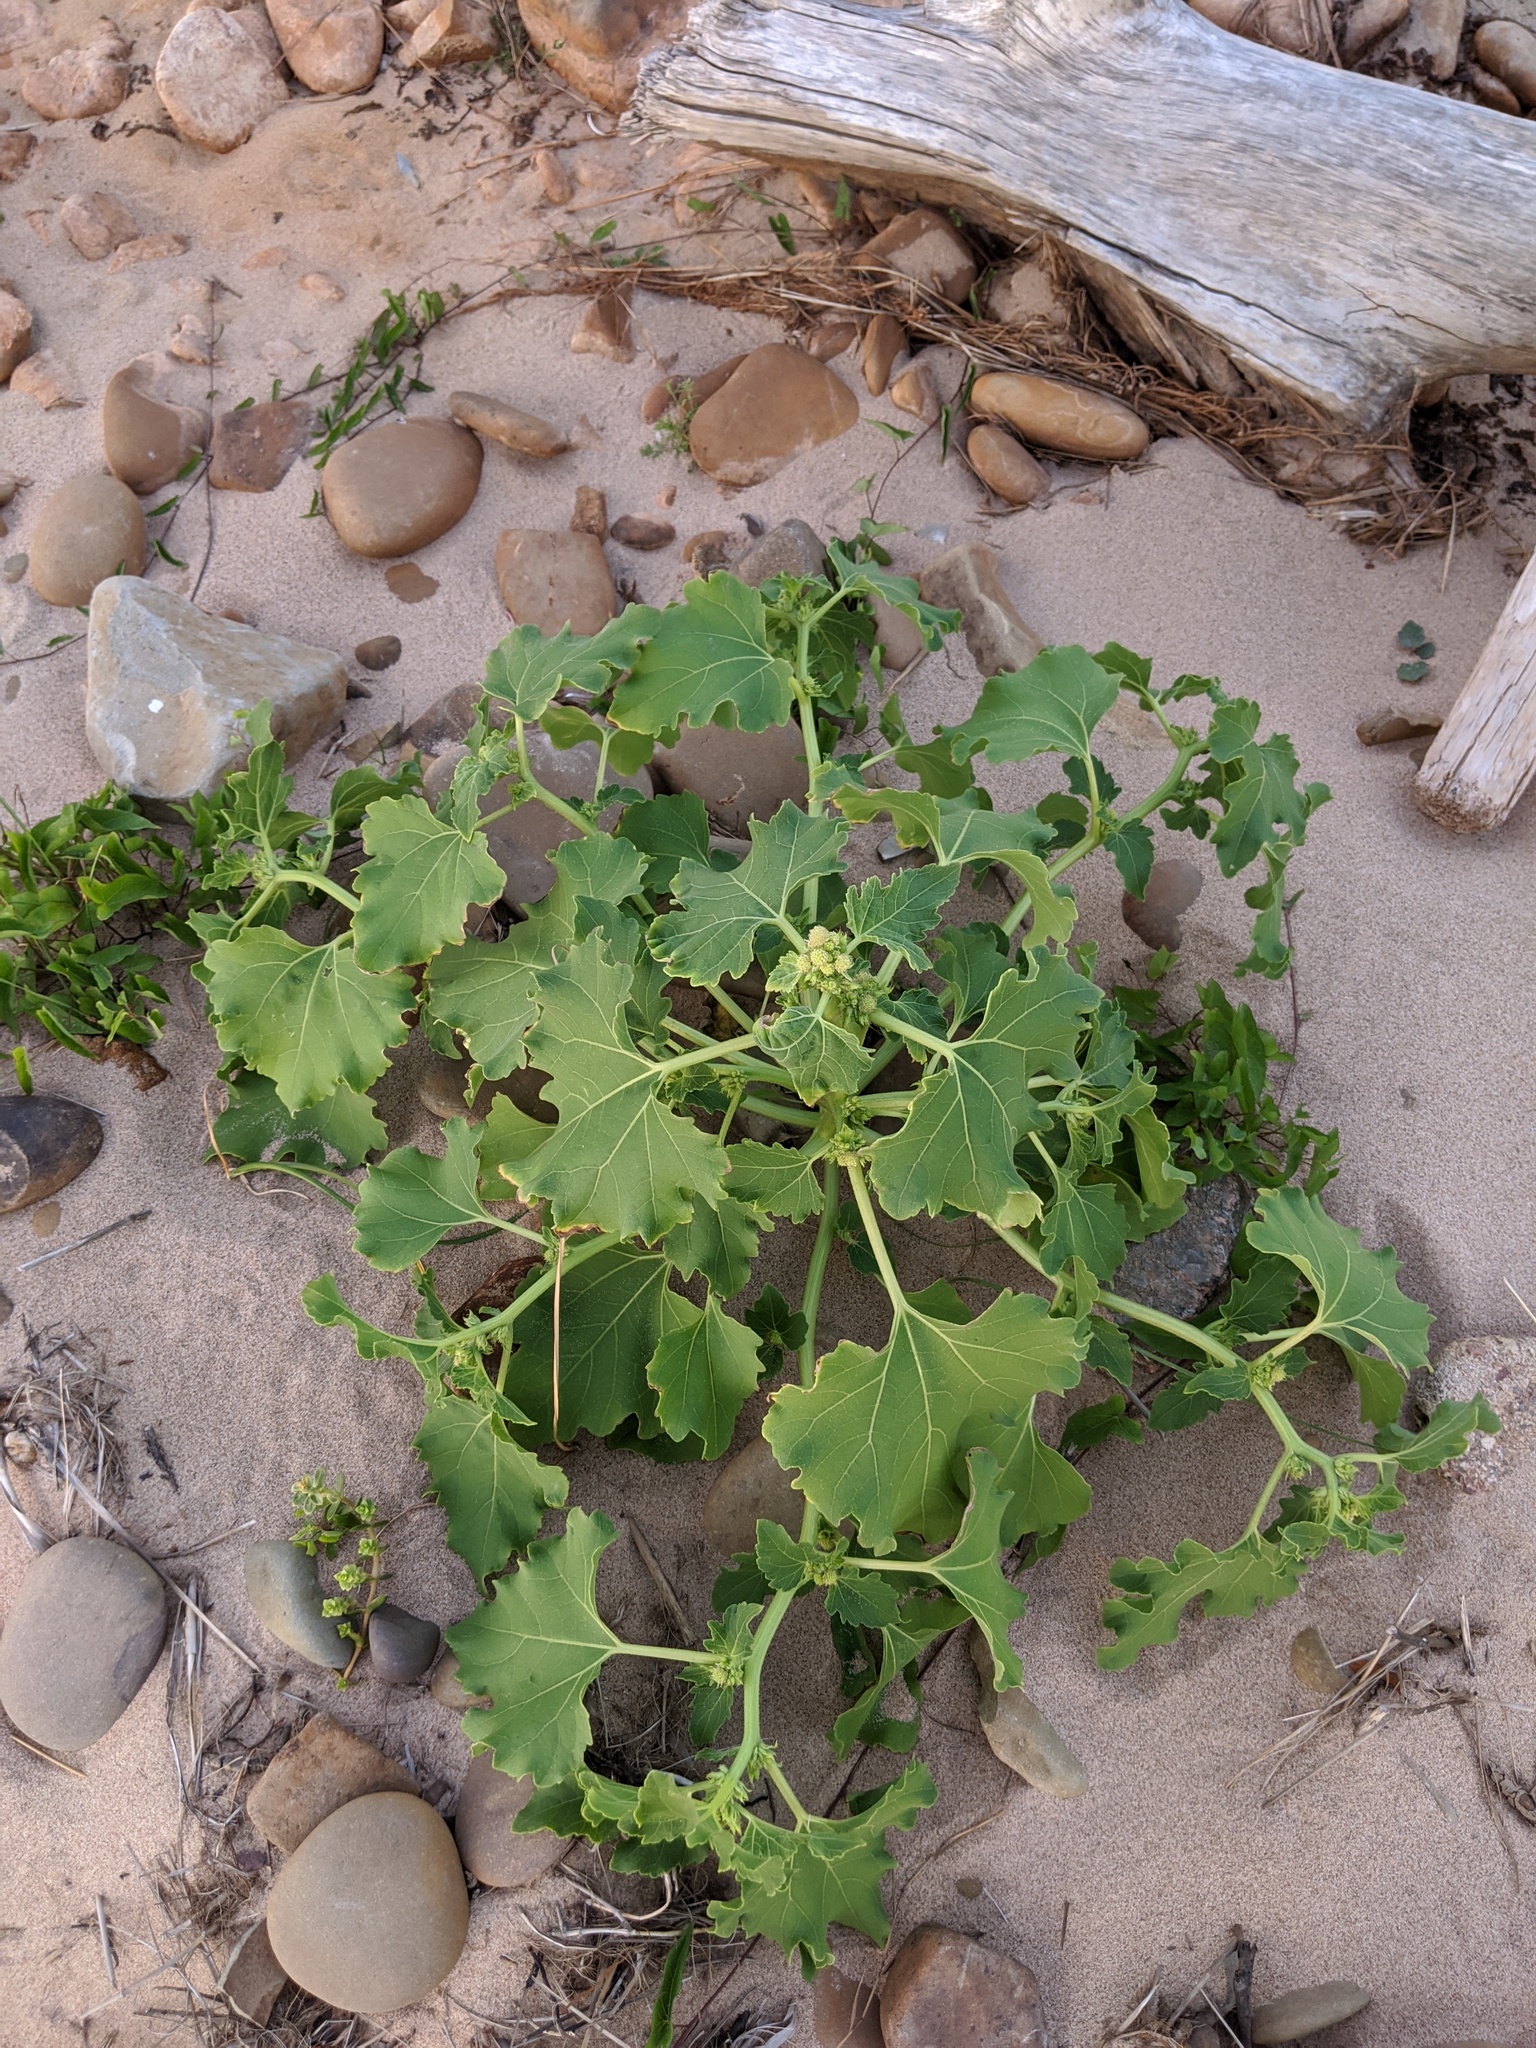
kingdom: Plantae
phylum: Tracheophyta
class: Magnoliopsida
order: Asterales
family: Asteraceae
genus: Xanthium
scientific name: Xanthium strumarium
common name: Rough cocklebur
